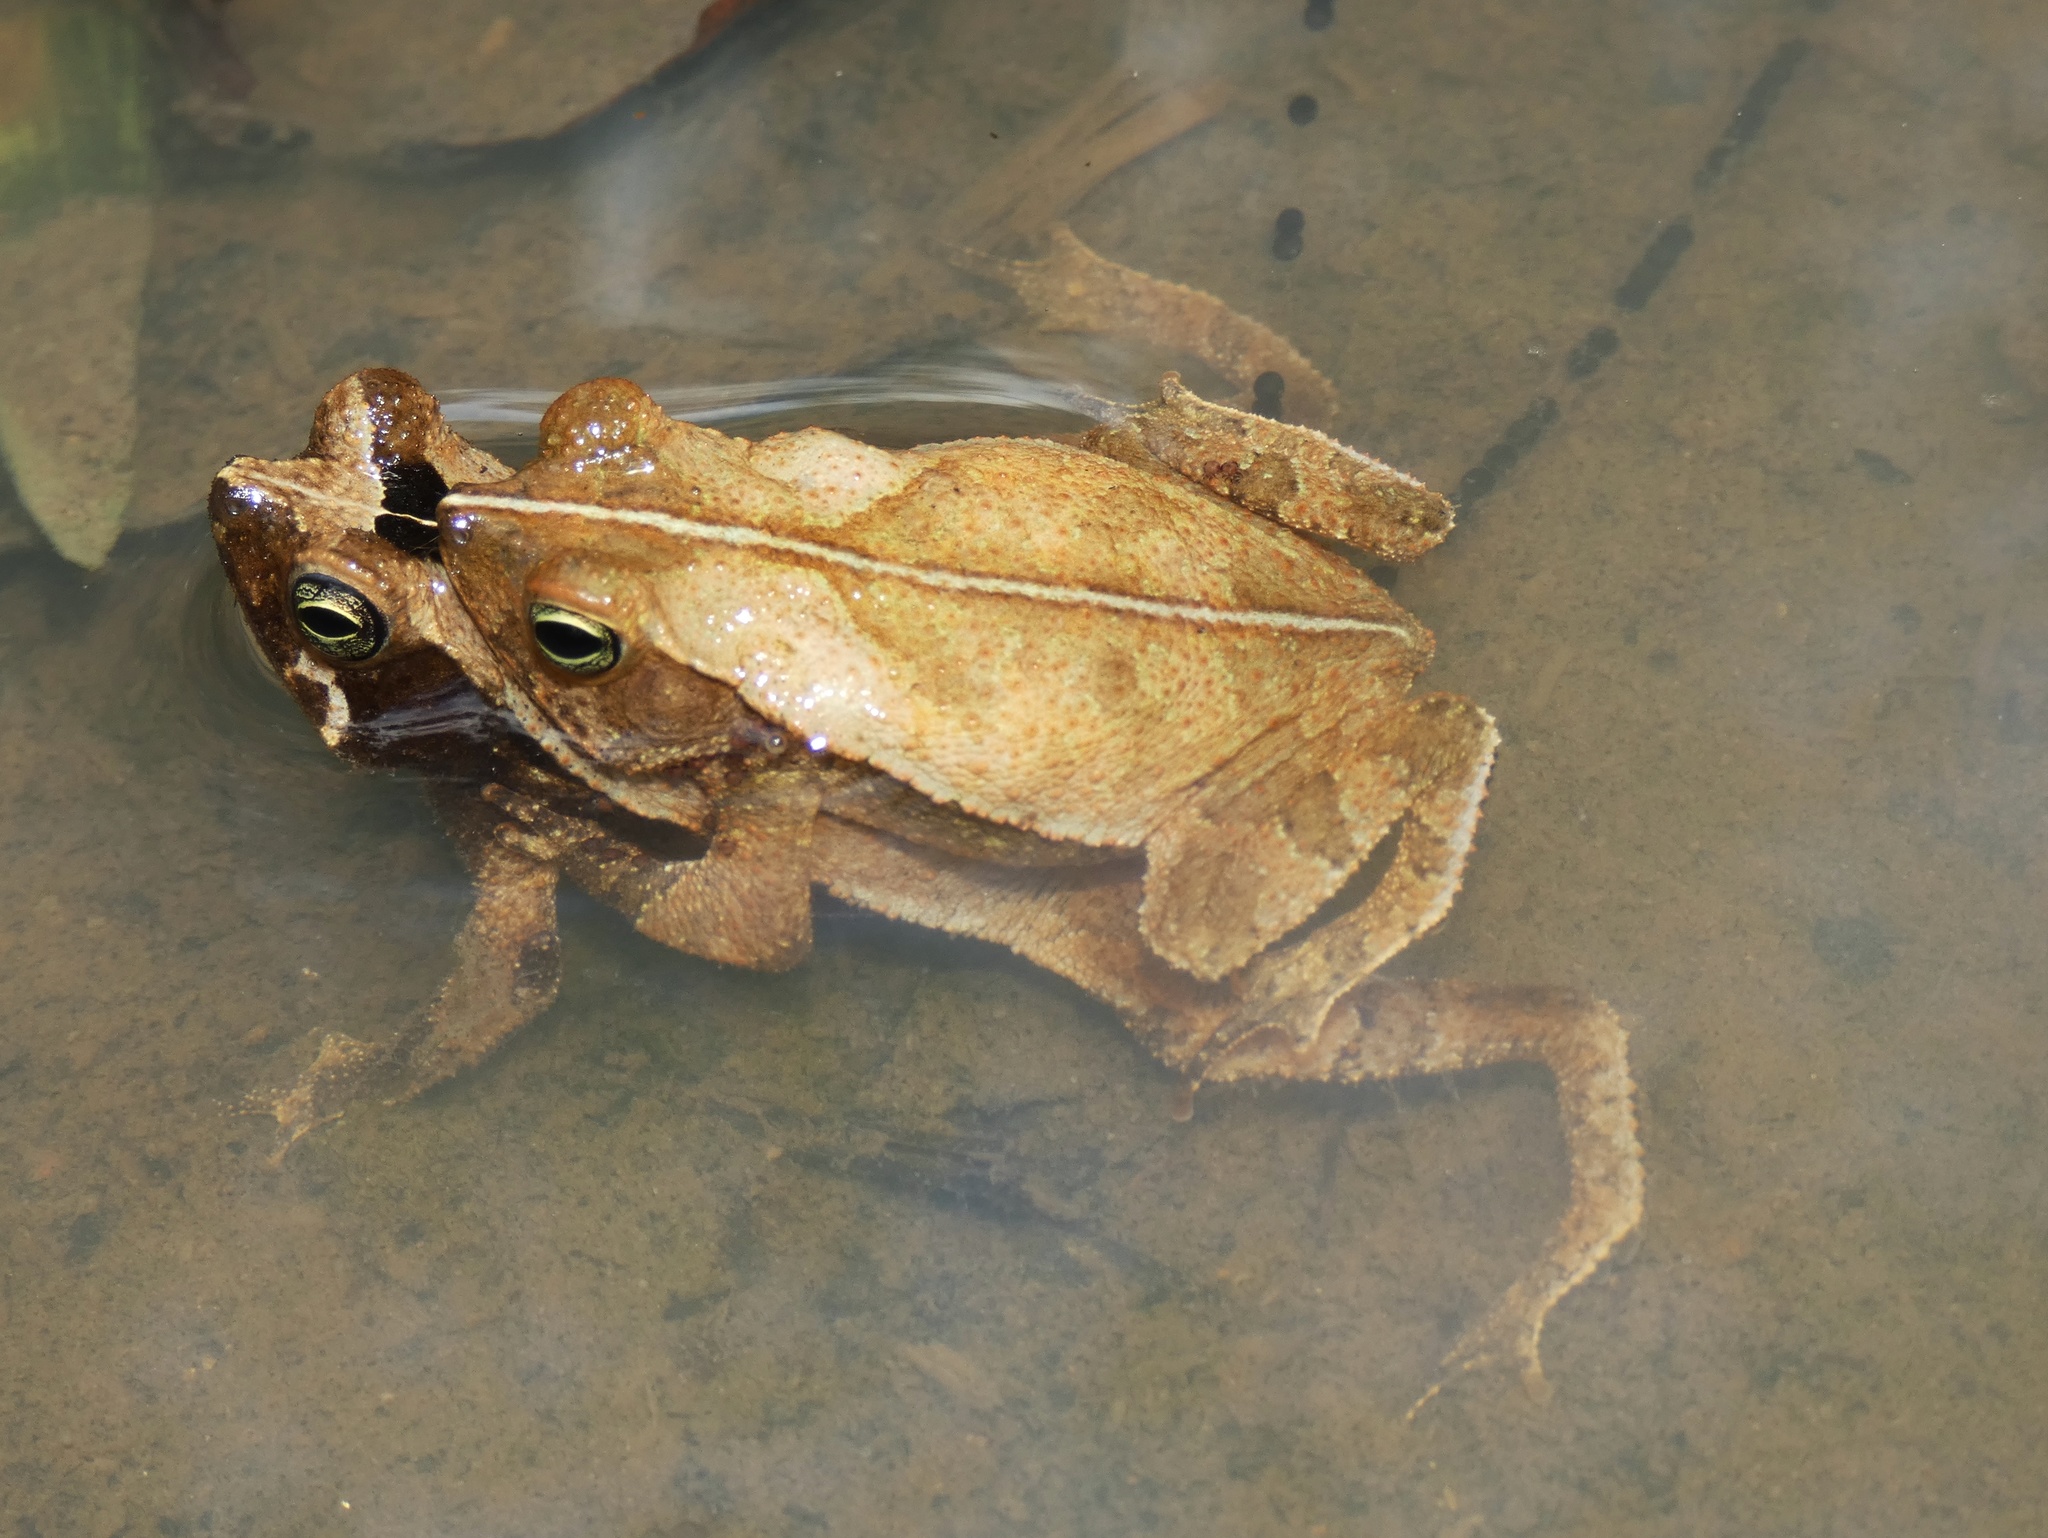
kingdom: Animalia
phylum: Chordata
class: Amphibia
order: Anura
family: Bufonidae
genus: Rhinella
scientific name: Rhinella alata
